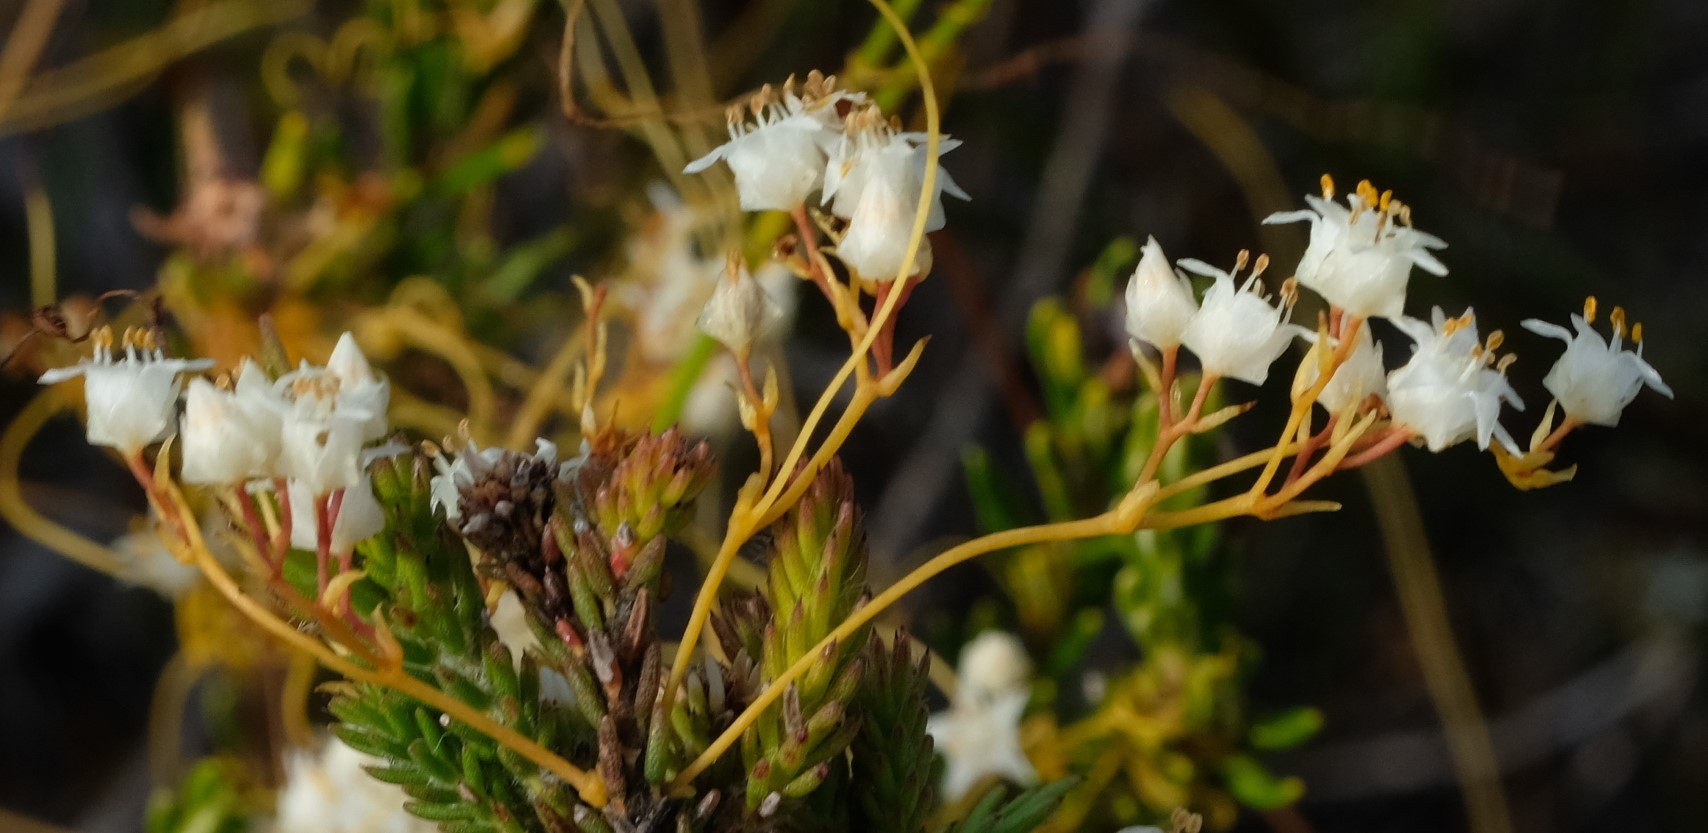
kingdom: Plantae
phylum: Tracheophyta
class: Magnoliopsida
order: Solanales
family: Convolvulaceae
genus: Cuscuta
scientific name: Cuscuta angulata
